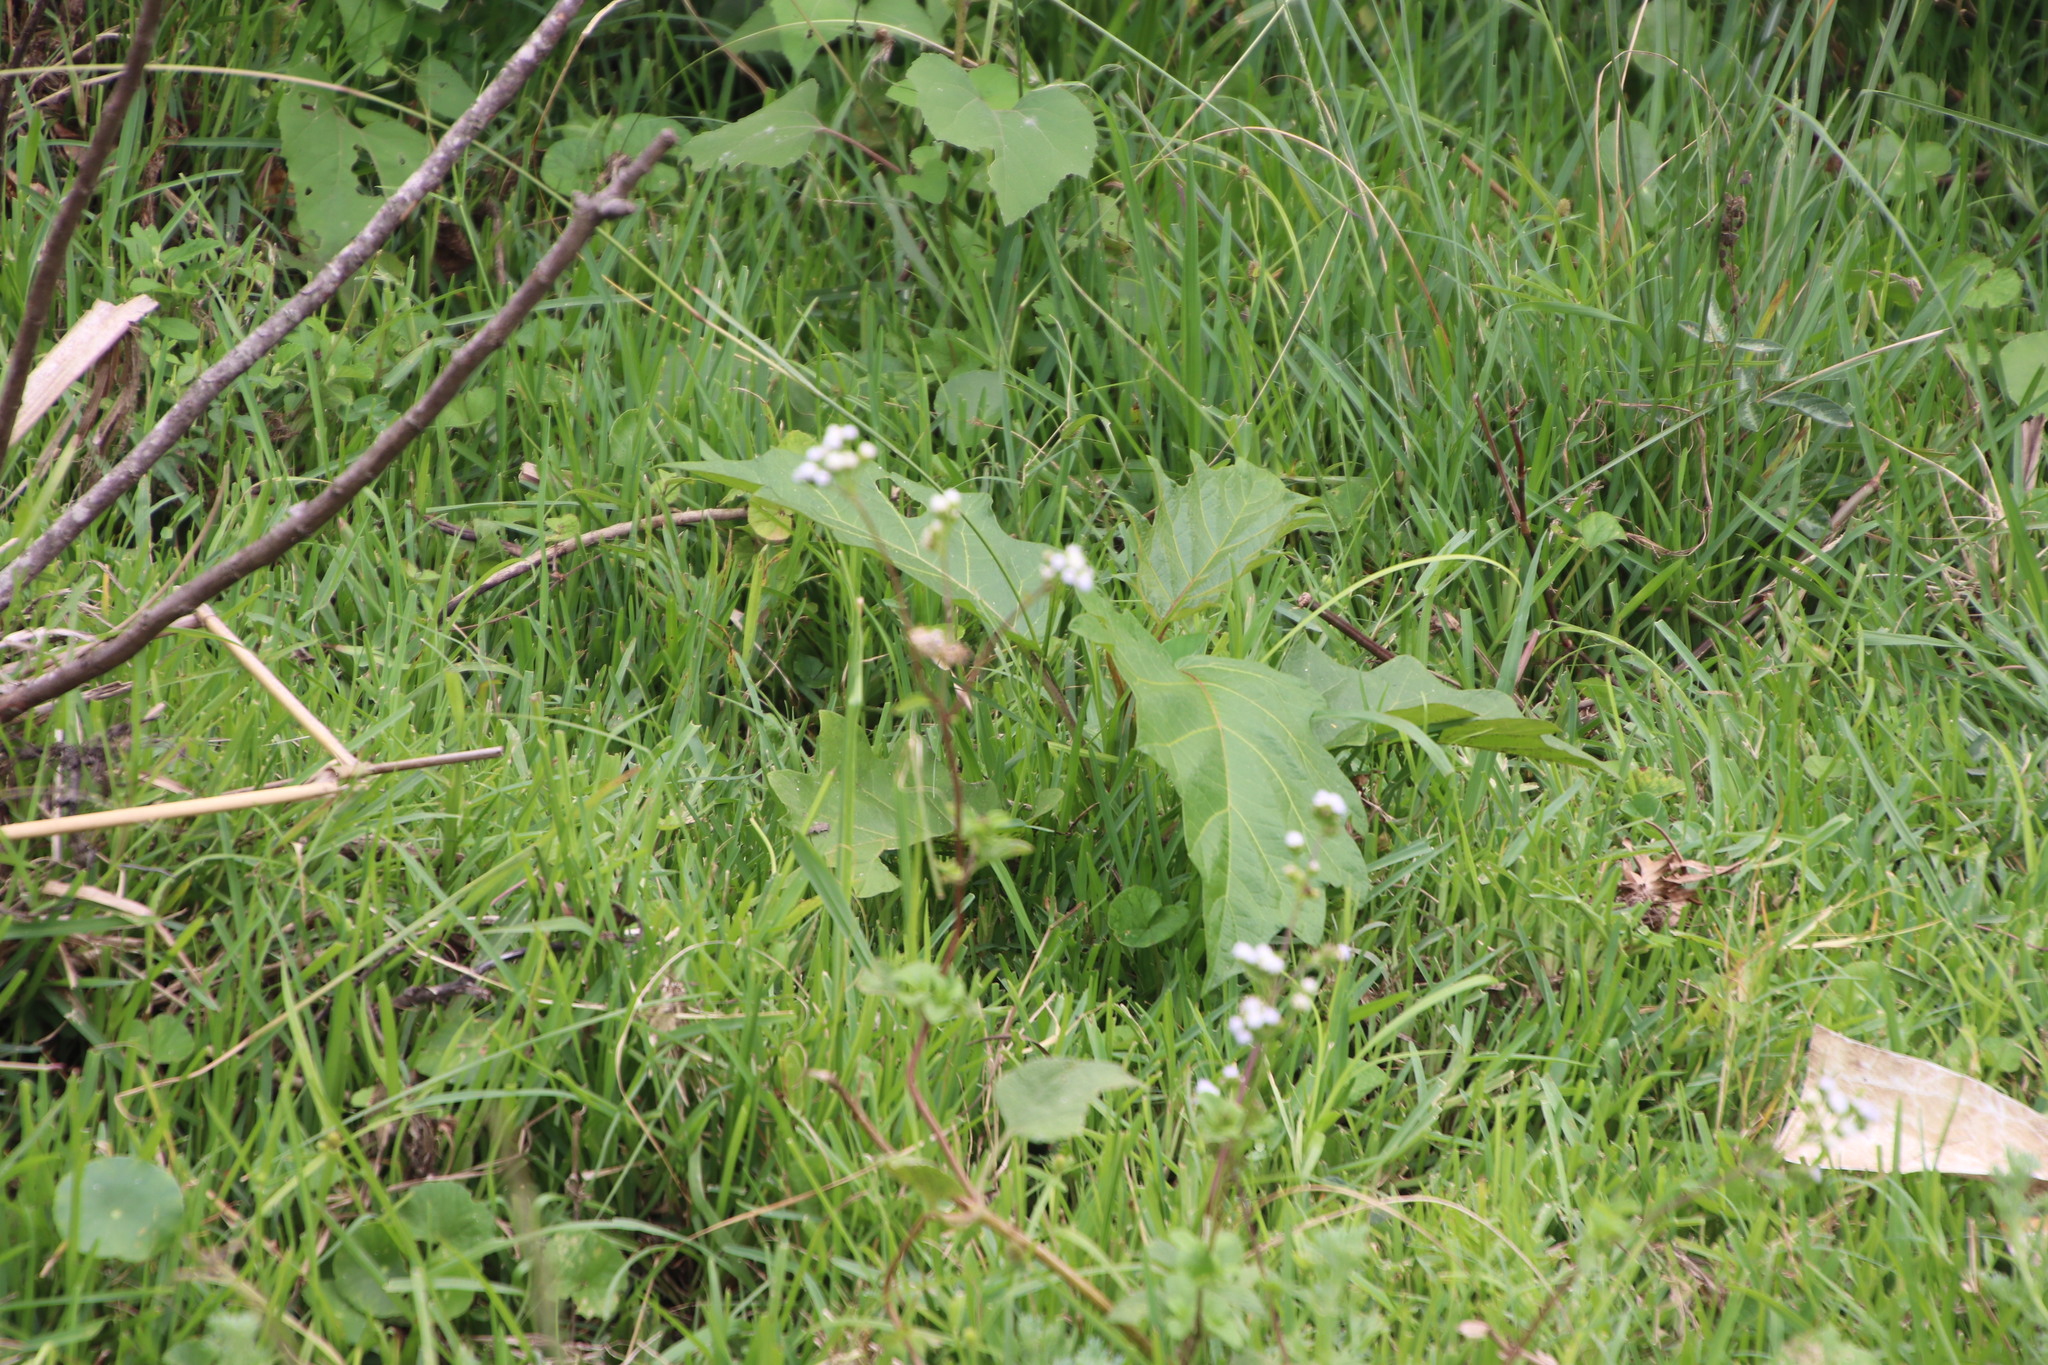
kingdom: Plantae
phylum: Tracheophyta
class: Magnoliopsida
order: Solanales
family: Solanaceae
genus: Solanum
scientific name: Solanum chrysotrichum
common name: Nightshade
